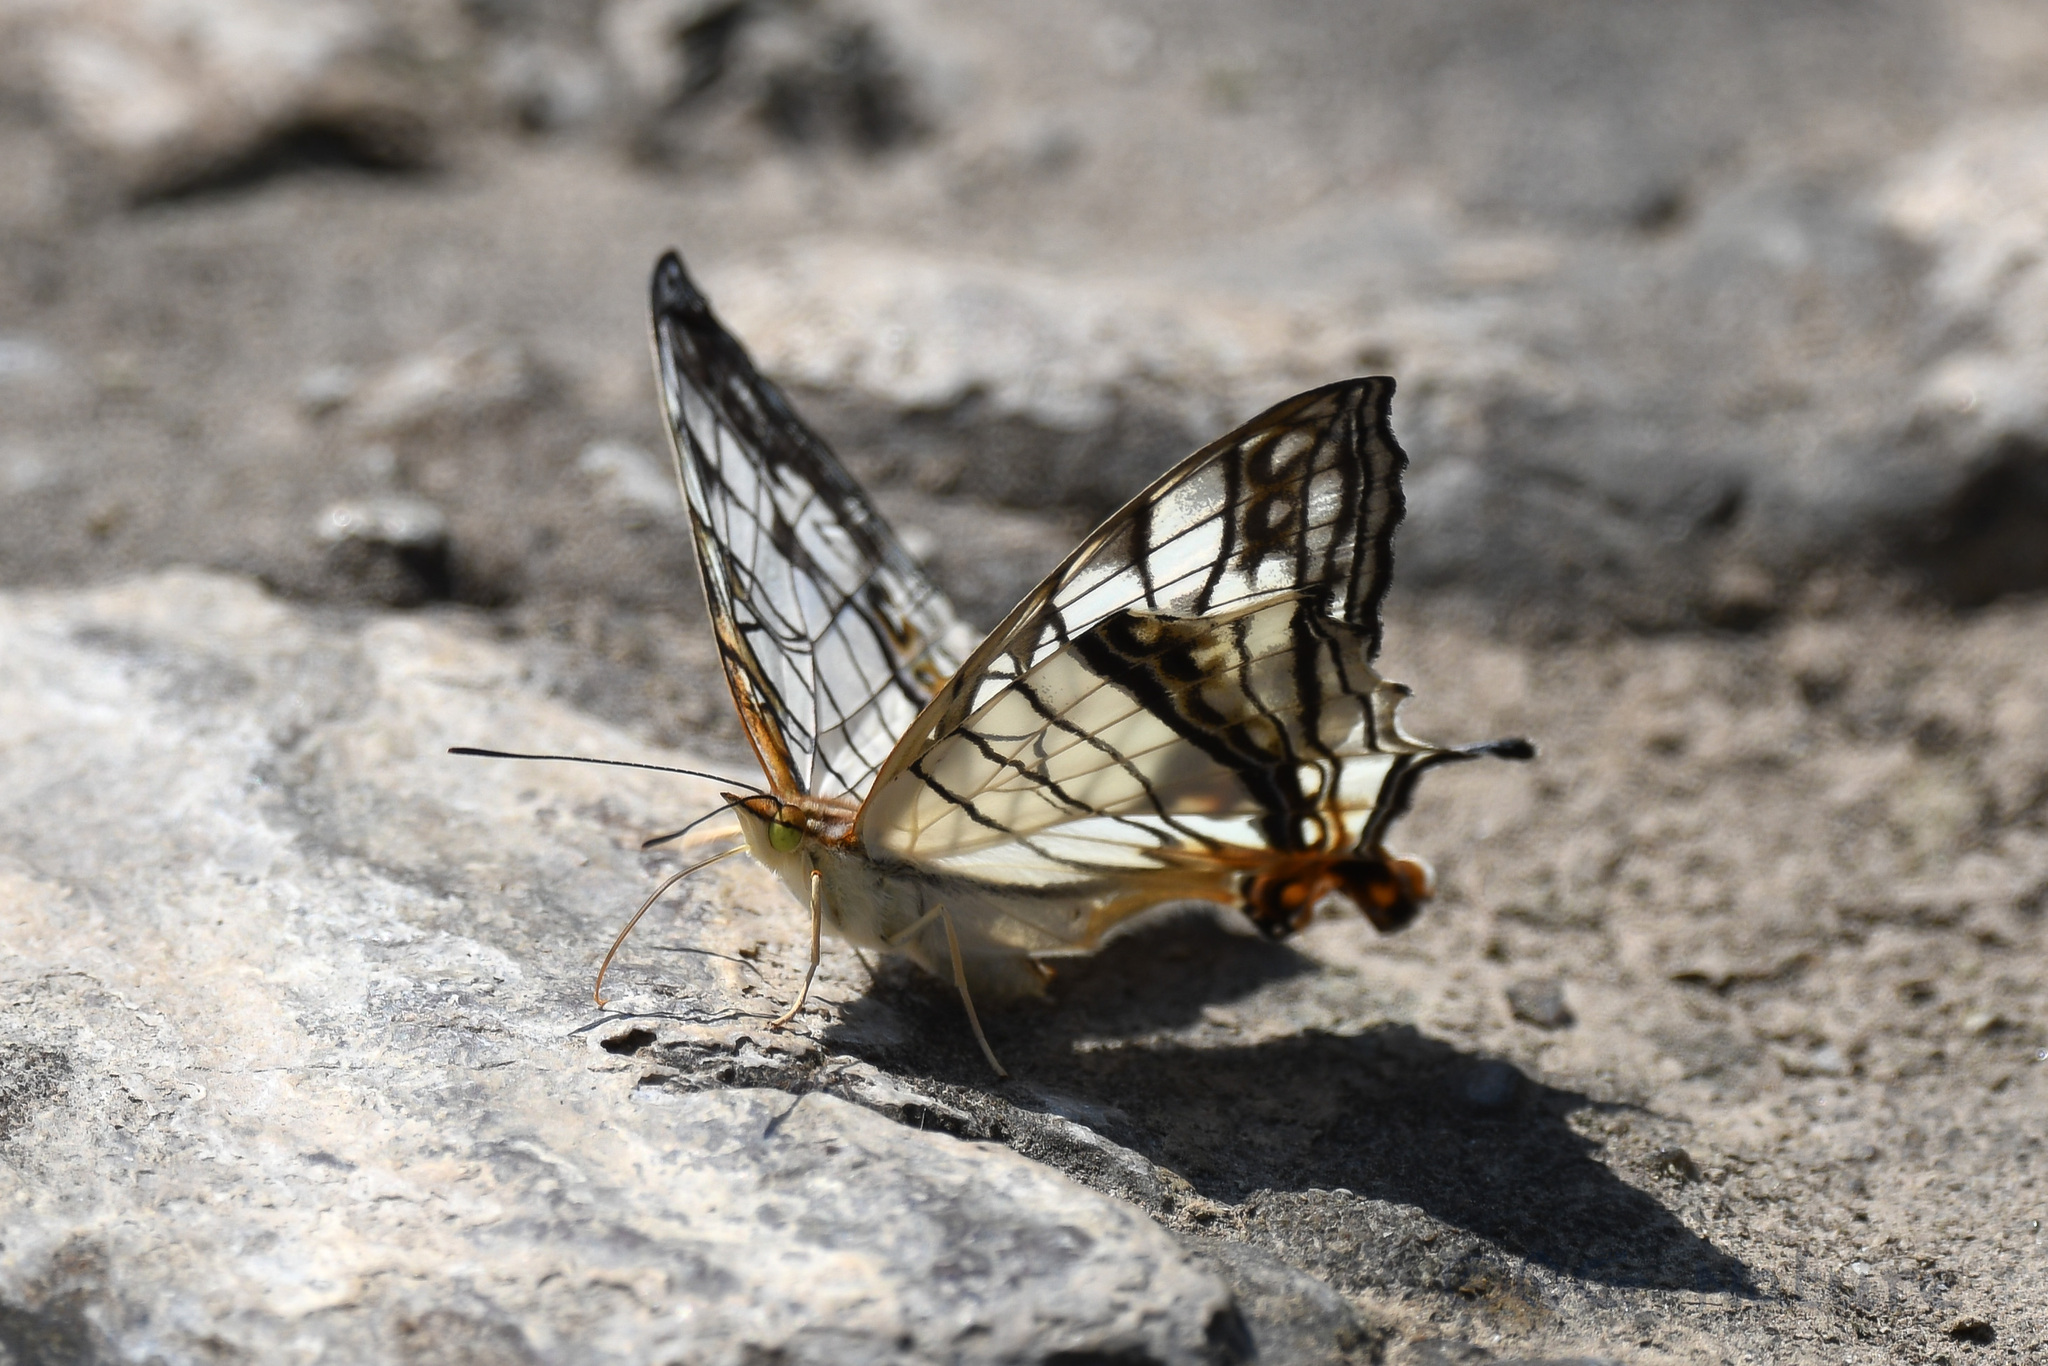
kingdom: Animalia
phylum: Arthropoda
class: Insecta
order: Lepidoptera
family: Nymphalidae
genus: Cyrestis
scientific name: Cyrestis thyodamas
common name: Common mapwing
